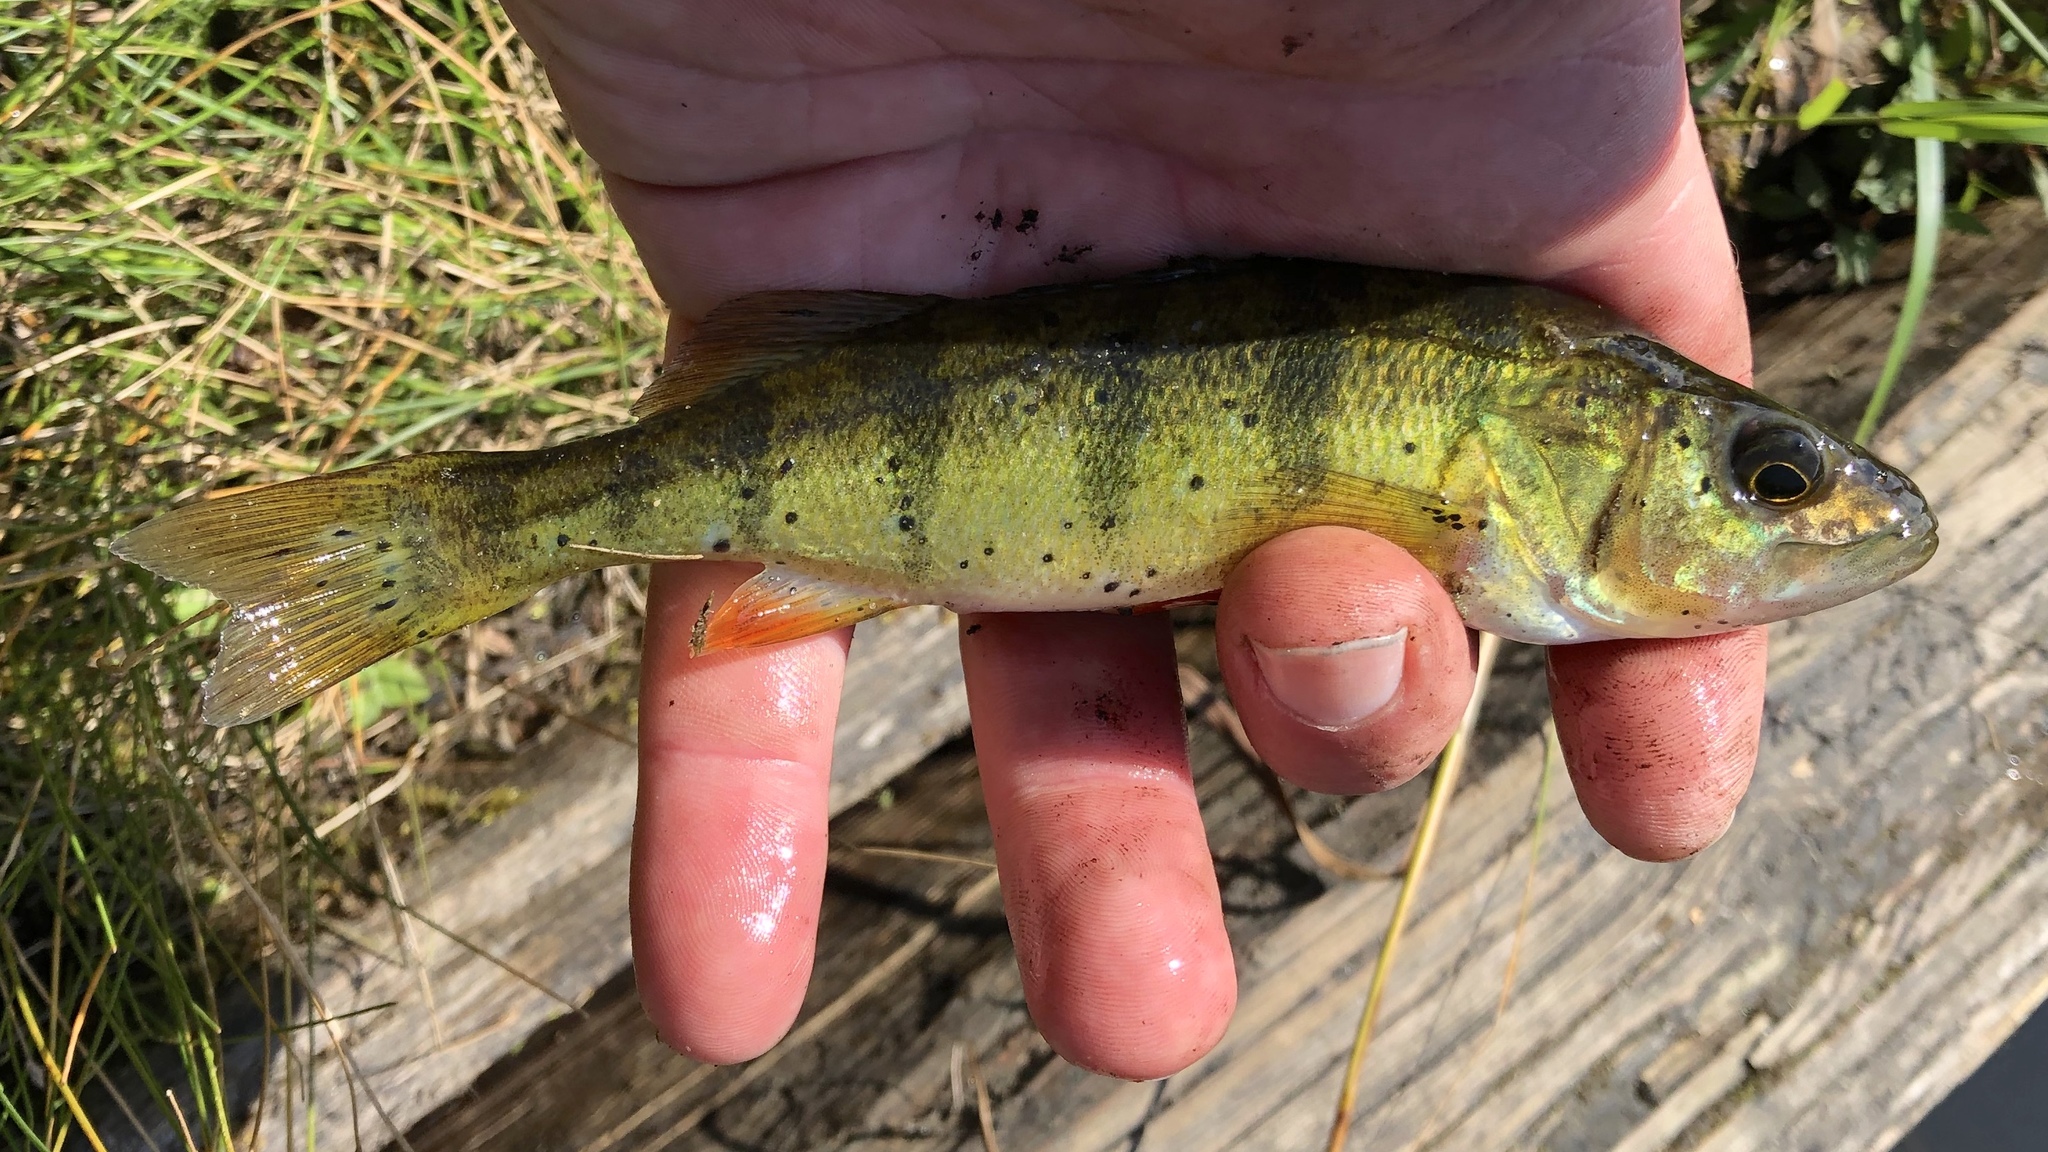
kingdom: Animalia
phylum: Chordata
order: Perciformes
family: Percidae
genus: Perca
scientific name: Perca flavescens
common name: Yellow perch
